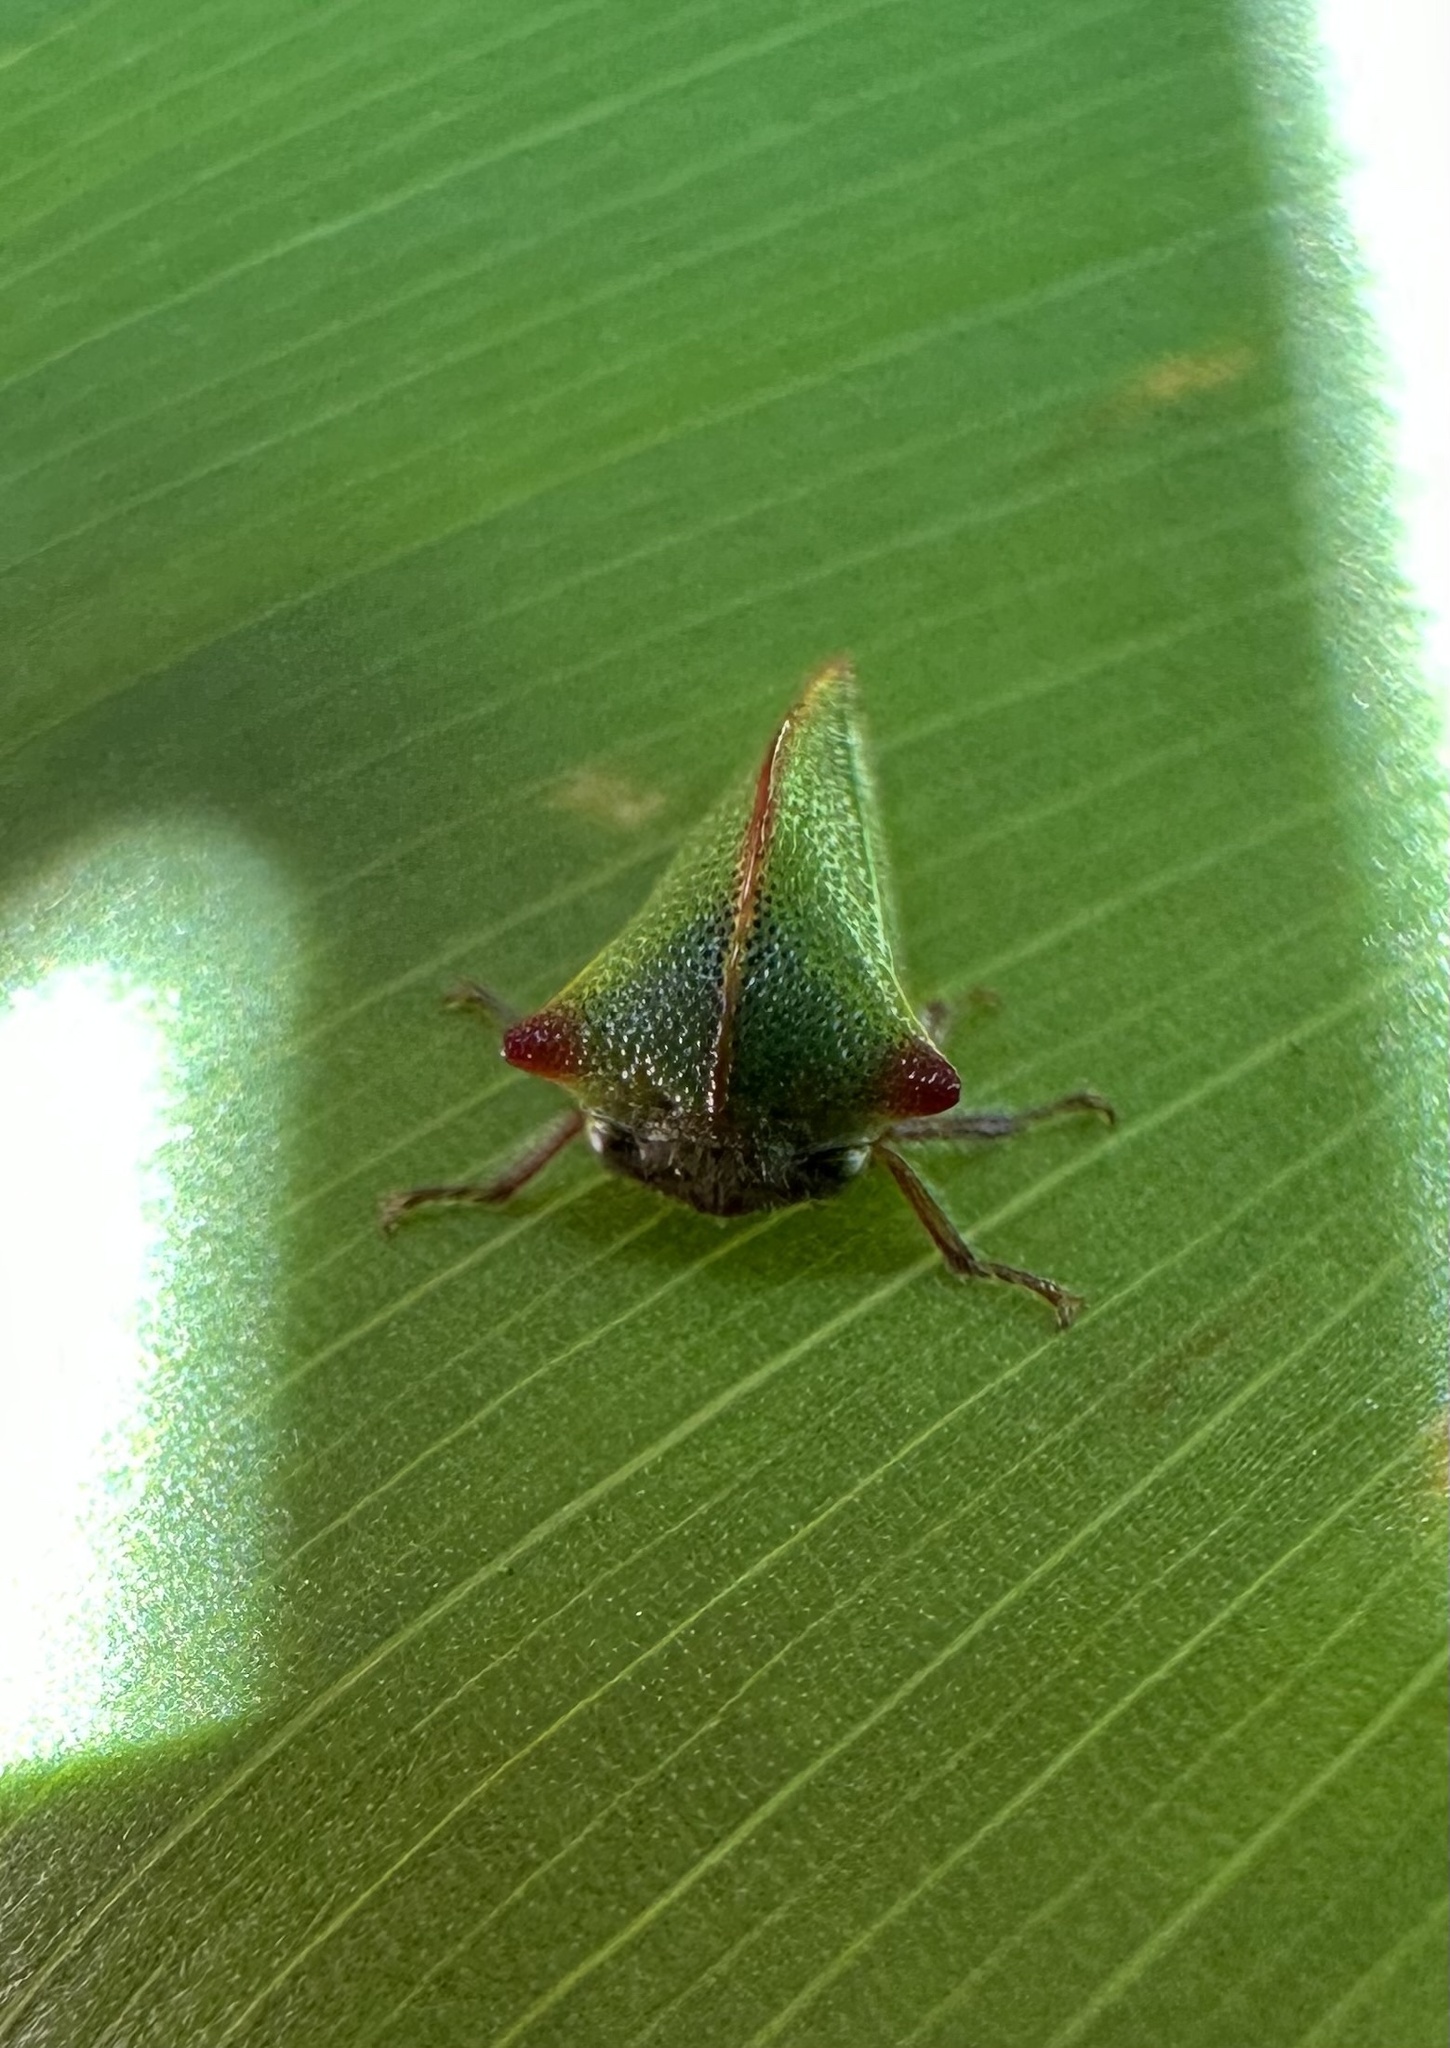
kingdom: Animalia
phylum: Arthropoda
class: Insecta
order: Hemiptera
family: Membracidae
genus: Alchisme
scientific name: Alchisme rubrocostata
